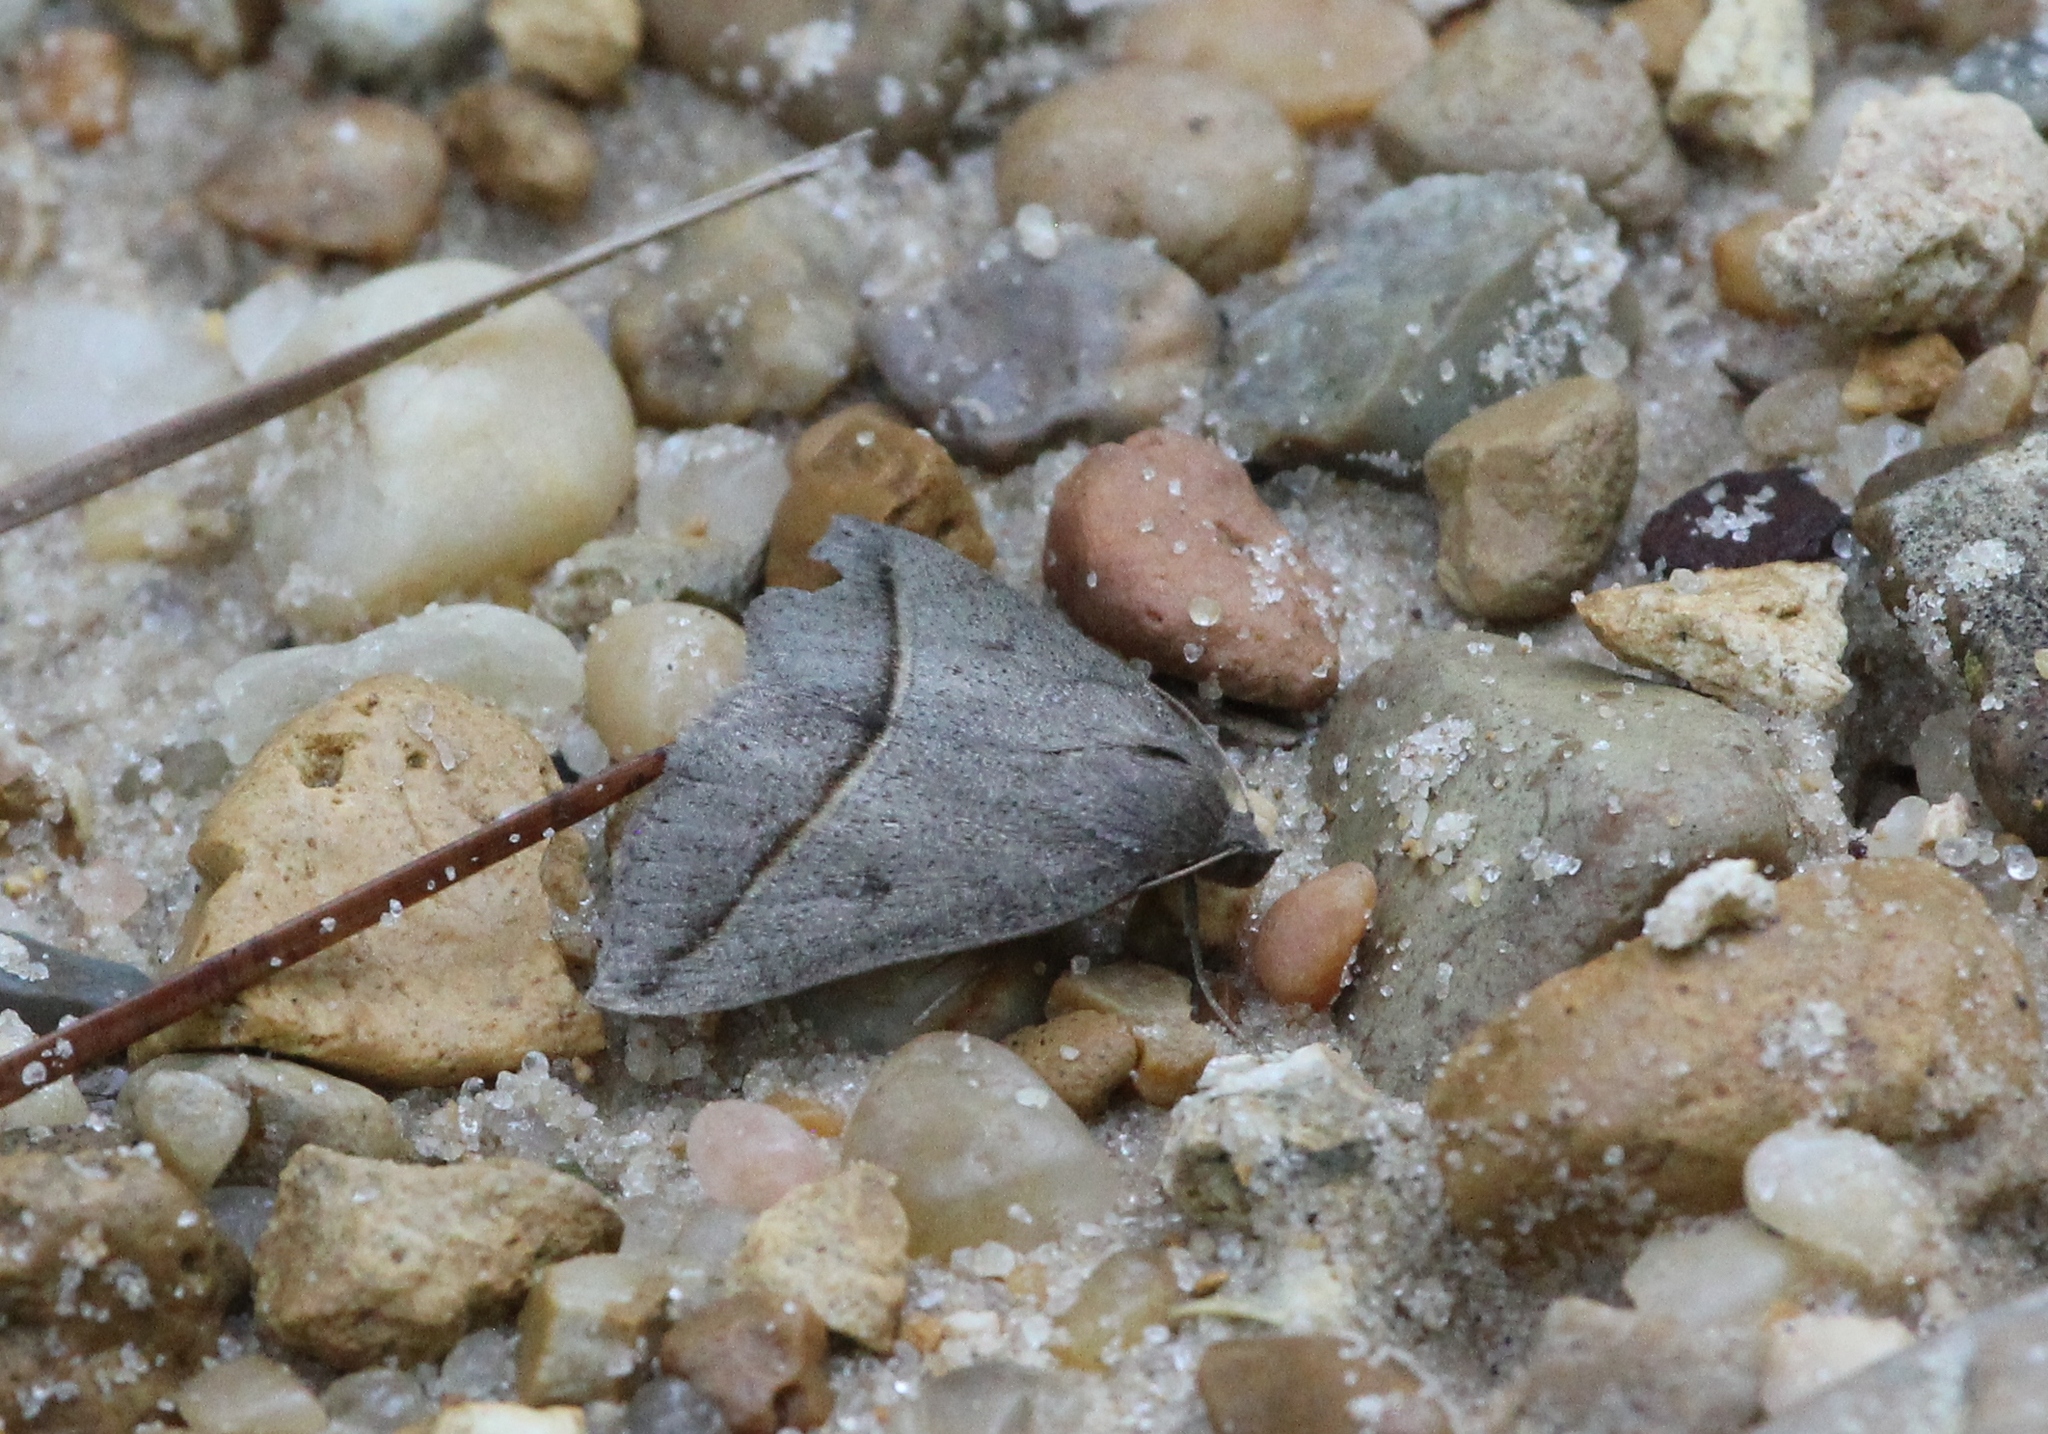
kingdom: Animalia
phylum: Arthropoda
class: Insecta
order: Lepidoptera
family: Erebidae
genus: Argyrostrotis
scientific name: Argyrostrotis flavistriaria
